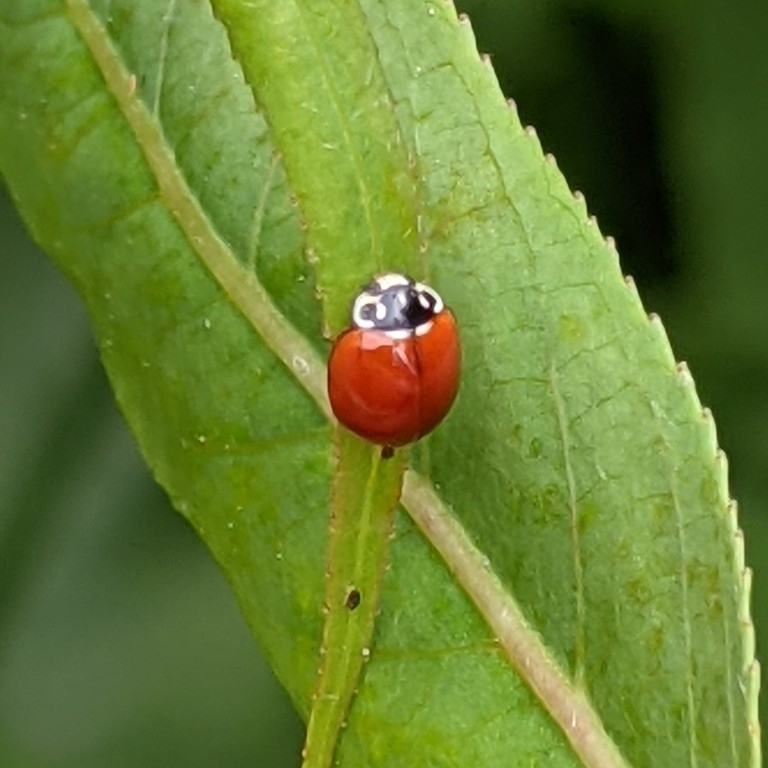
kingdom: Animalia
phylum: Arthropoda
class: Insecta
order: Coleoptera
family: Coccinellidae
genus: Cycloneda
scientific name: Cycloneda polita
